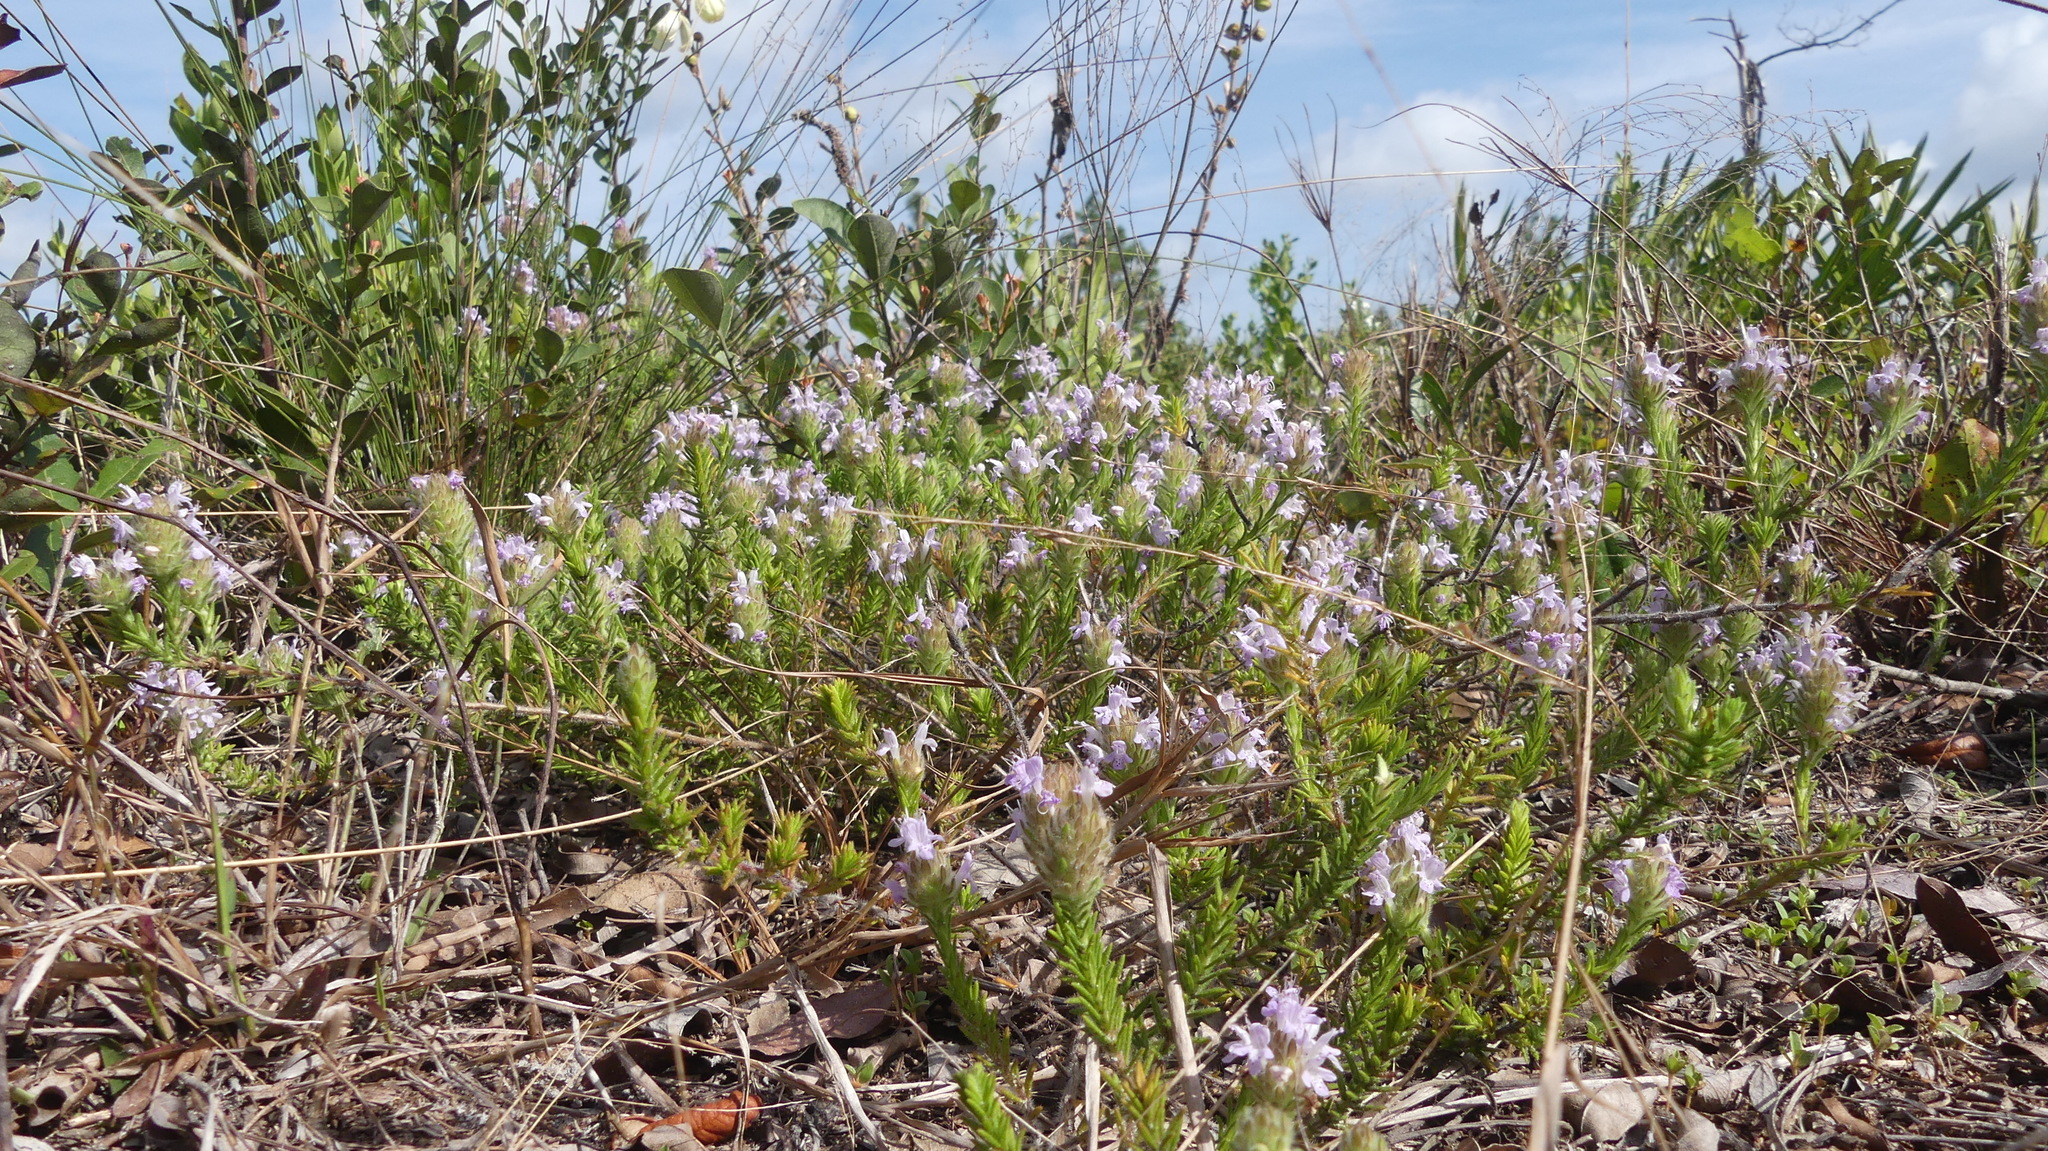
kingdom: Plantae
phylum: Tracheophyta
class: Magnoliopsida
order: Lamiales
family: Lamiaceae
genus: Piloblephis
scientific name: Piloblephis rigida
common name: Wild pennyroyal
